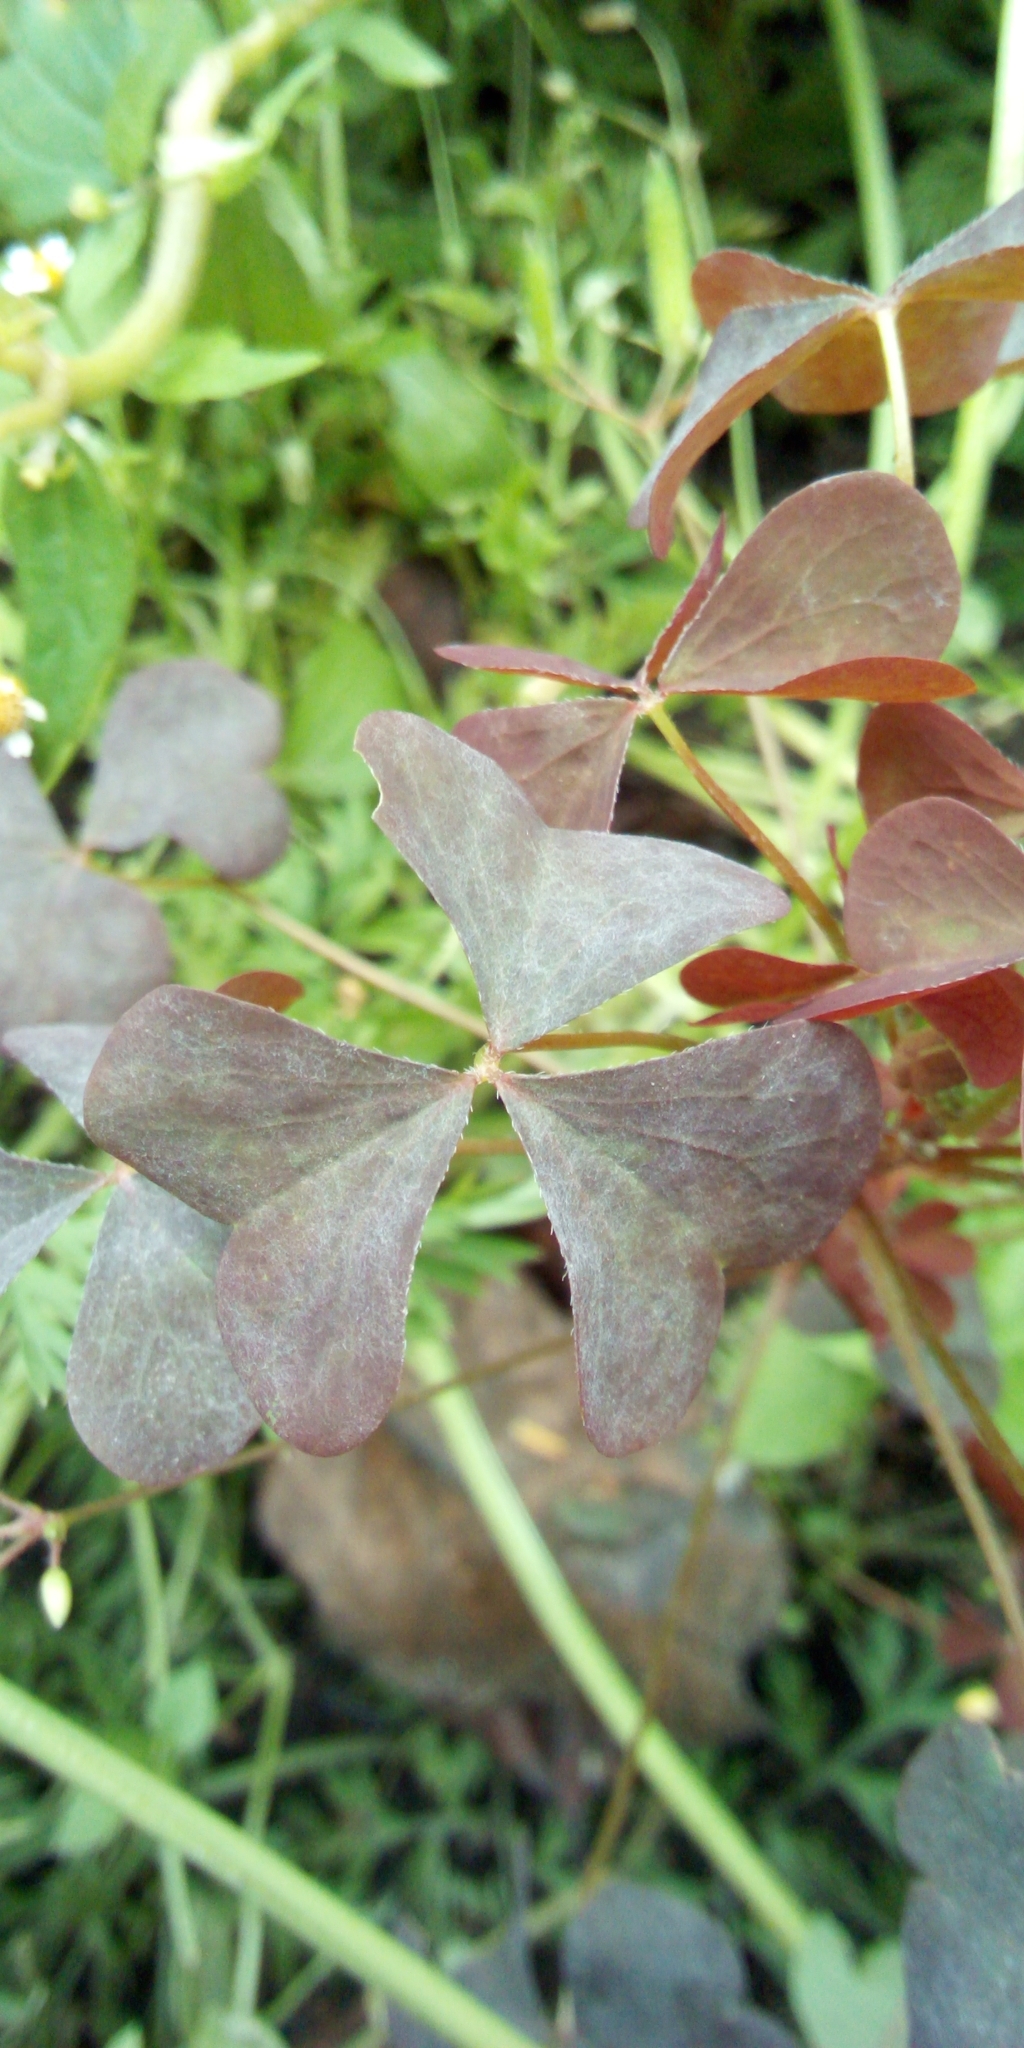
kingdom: Plantae
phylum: Tracheophyta
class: Magnoliopsida
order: Oxalidales
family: Oxalidaceae
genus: Oxalis
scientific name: Oxalis stricta
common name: Upright yellow-sorrel
